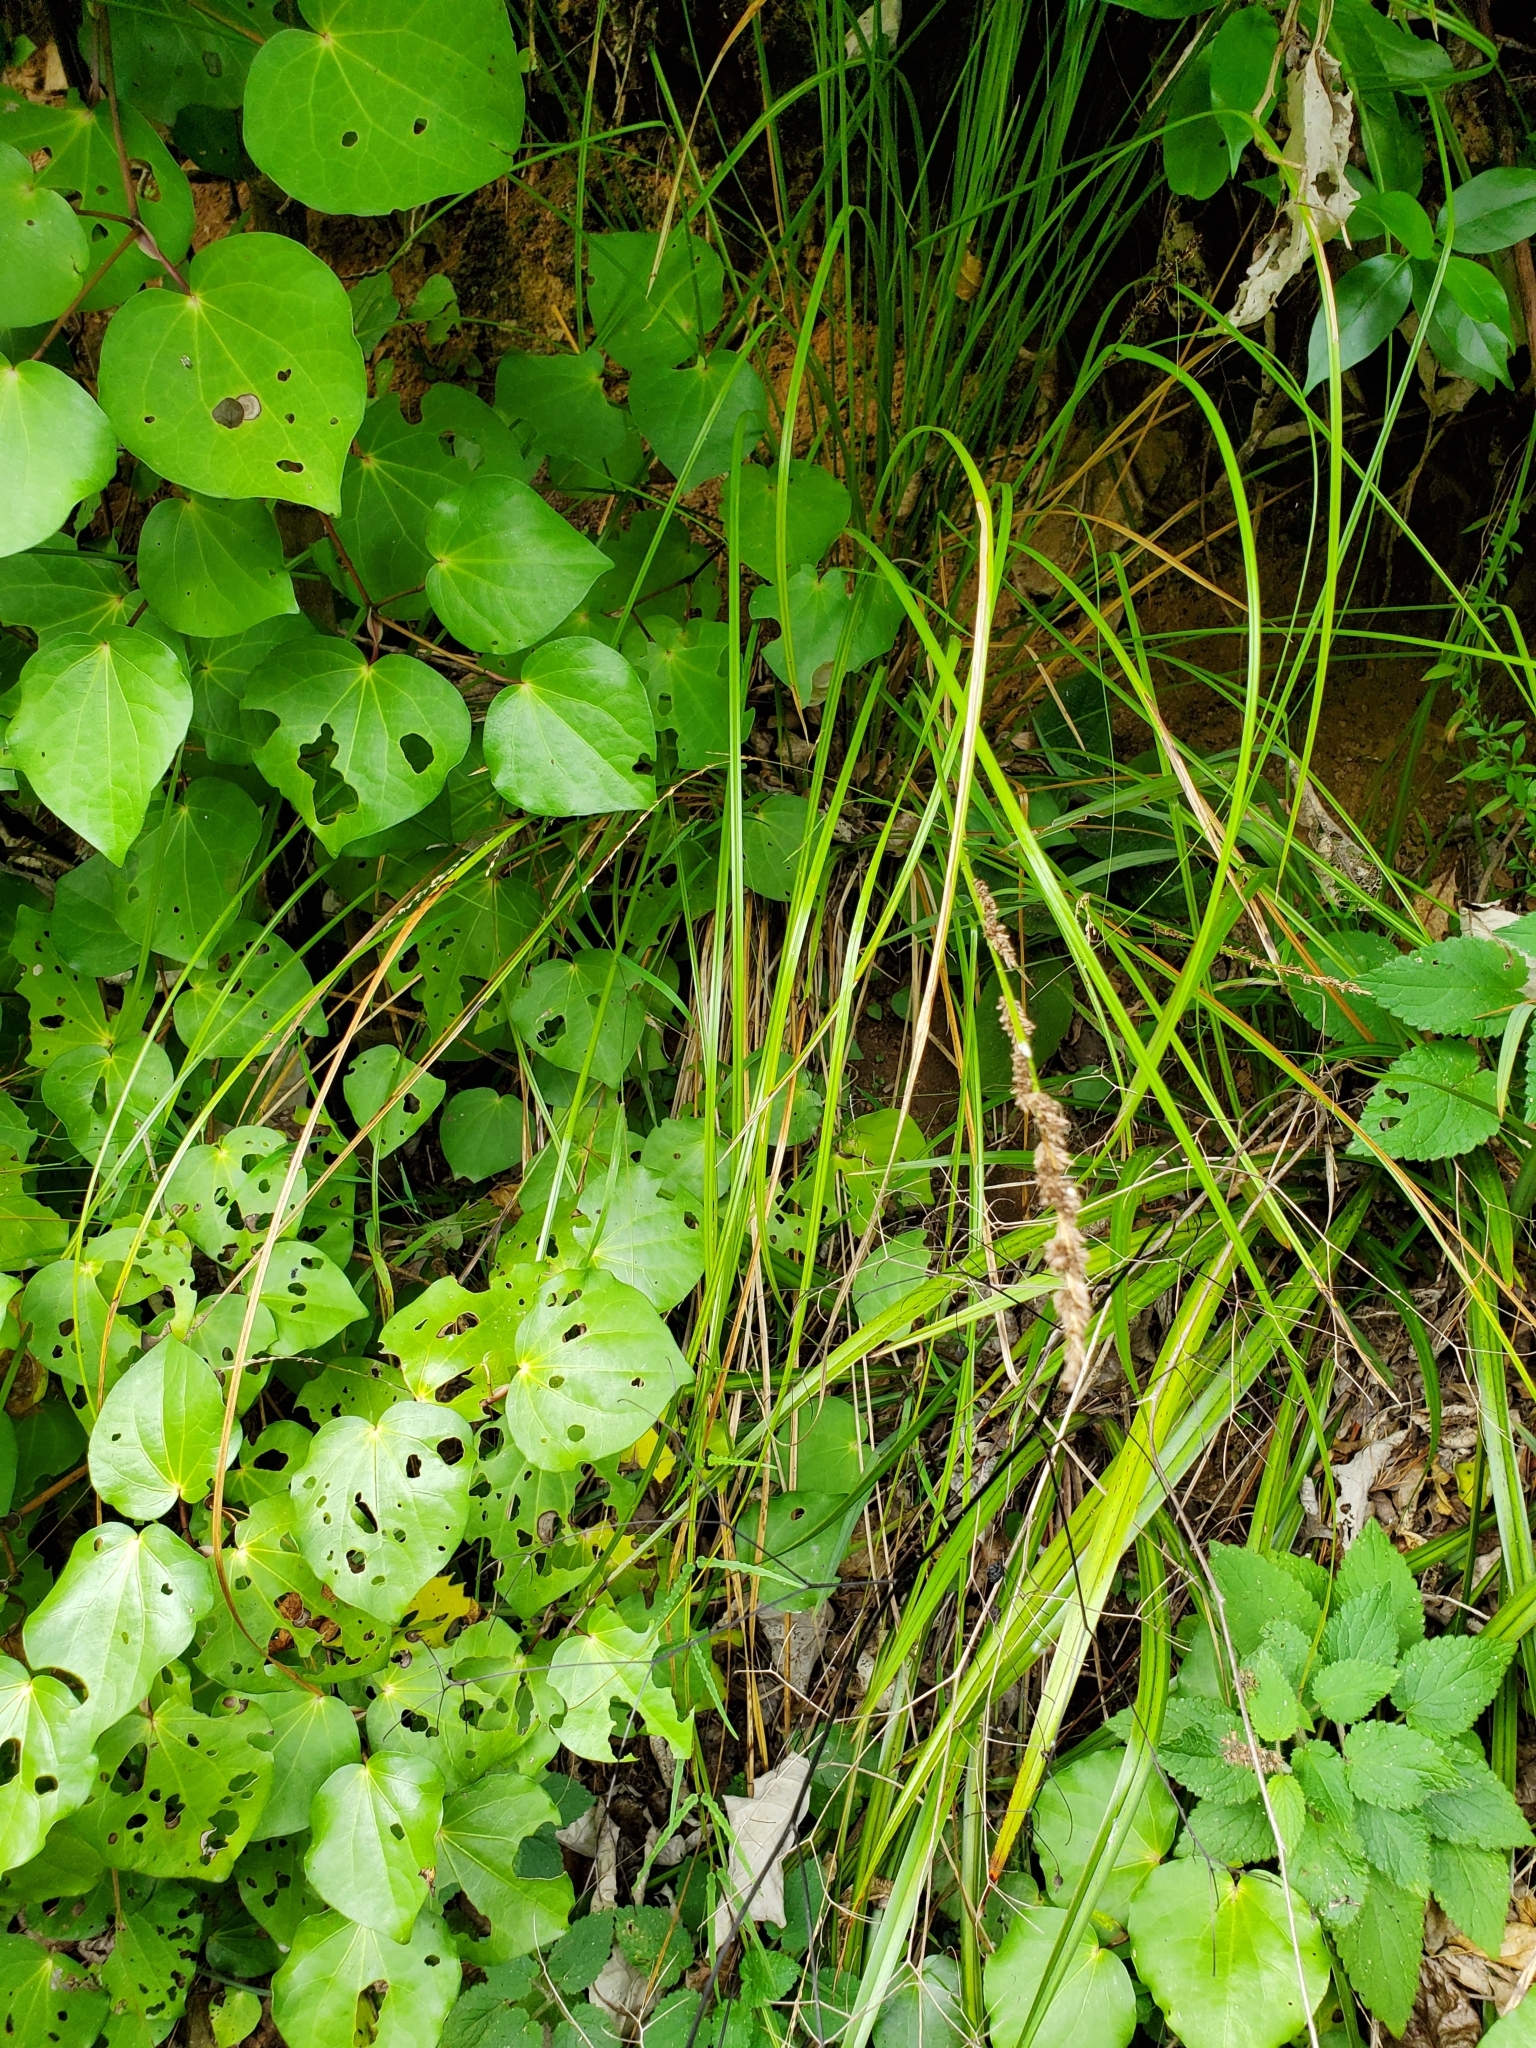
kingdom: Plantae
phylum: Tracheophyta
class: Liliopsida
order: Poales
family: Cyperaceae
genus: Carex
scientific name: Carex virgata
